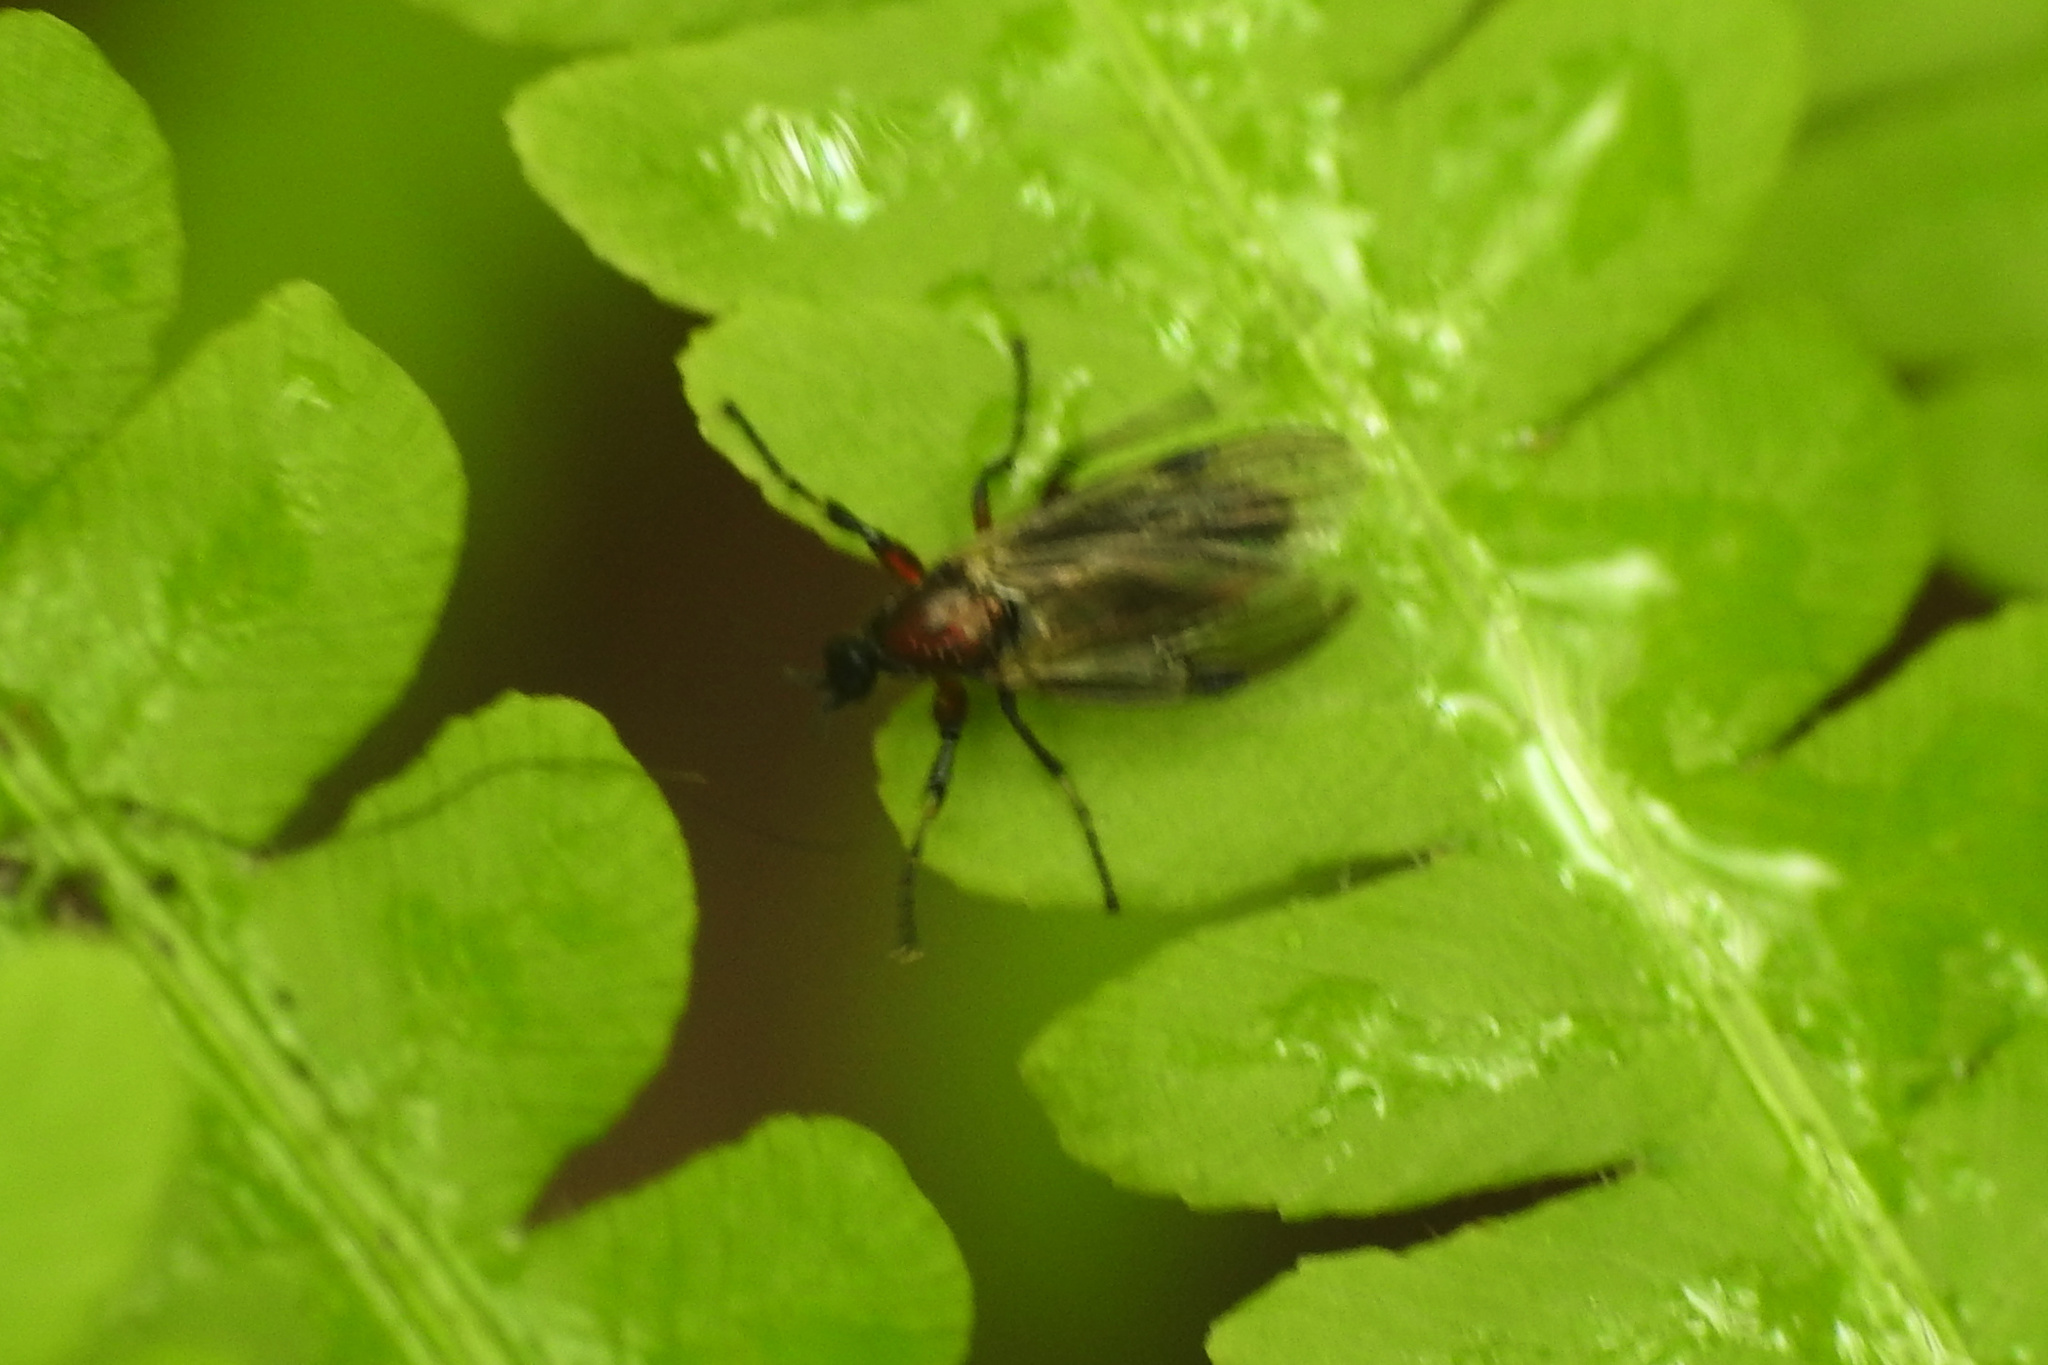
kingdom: Animalia
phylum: Arthropoda
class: Insecta
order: Diptera
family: Bibionidae
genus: Bibio
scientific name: Bibio articulatus
